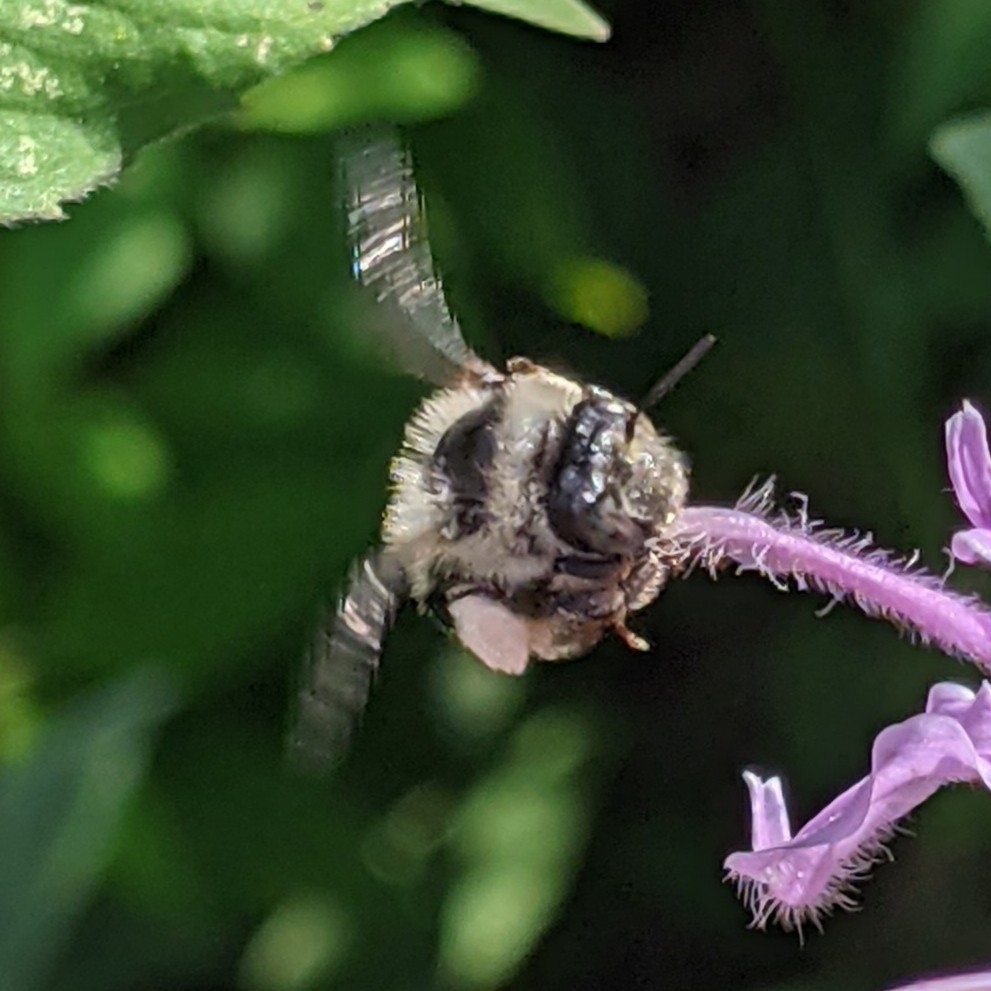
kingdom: Animalia
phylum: Arthropoda
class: Insecta
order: Hymenoptera
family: Apidae
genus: Anthophora
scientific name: Anthophora terminalis
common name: Orange-tipped wood-digger bee
